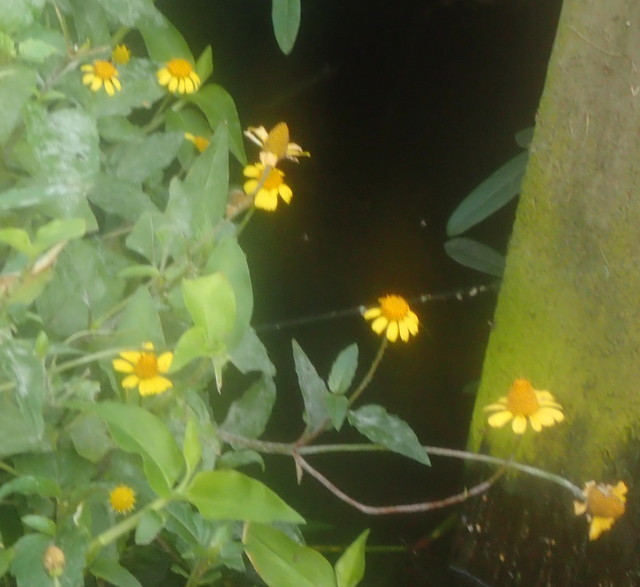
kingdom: Plantae
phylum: Tracheophyta
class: Magnoliopsida
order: Asterales
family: Asteraceae
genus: Acmella
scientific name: Acmella repens
